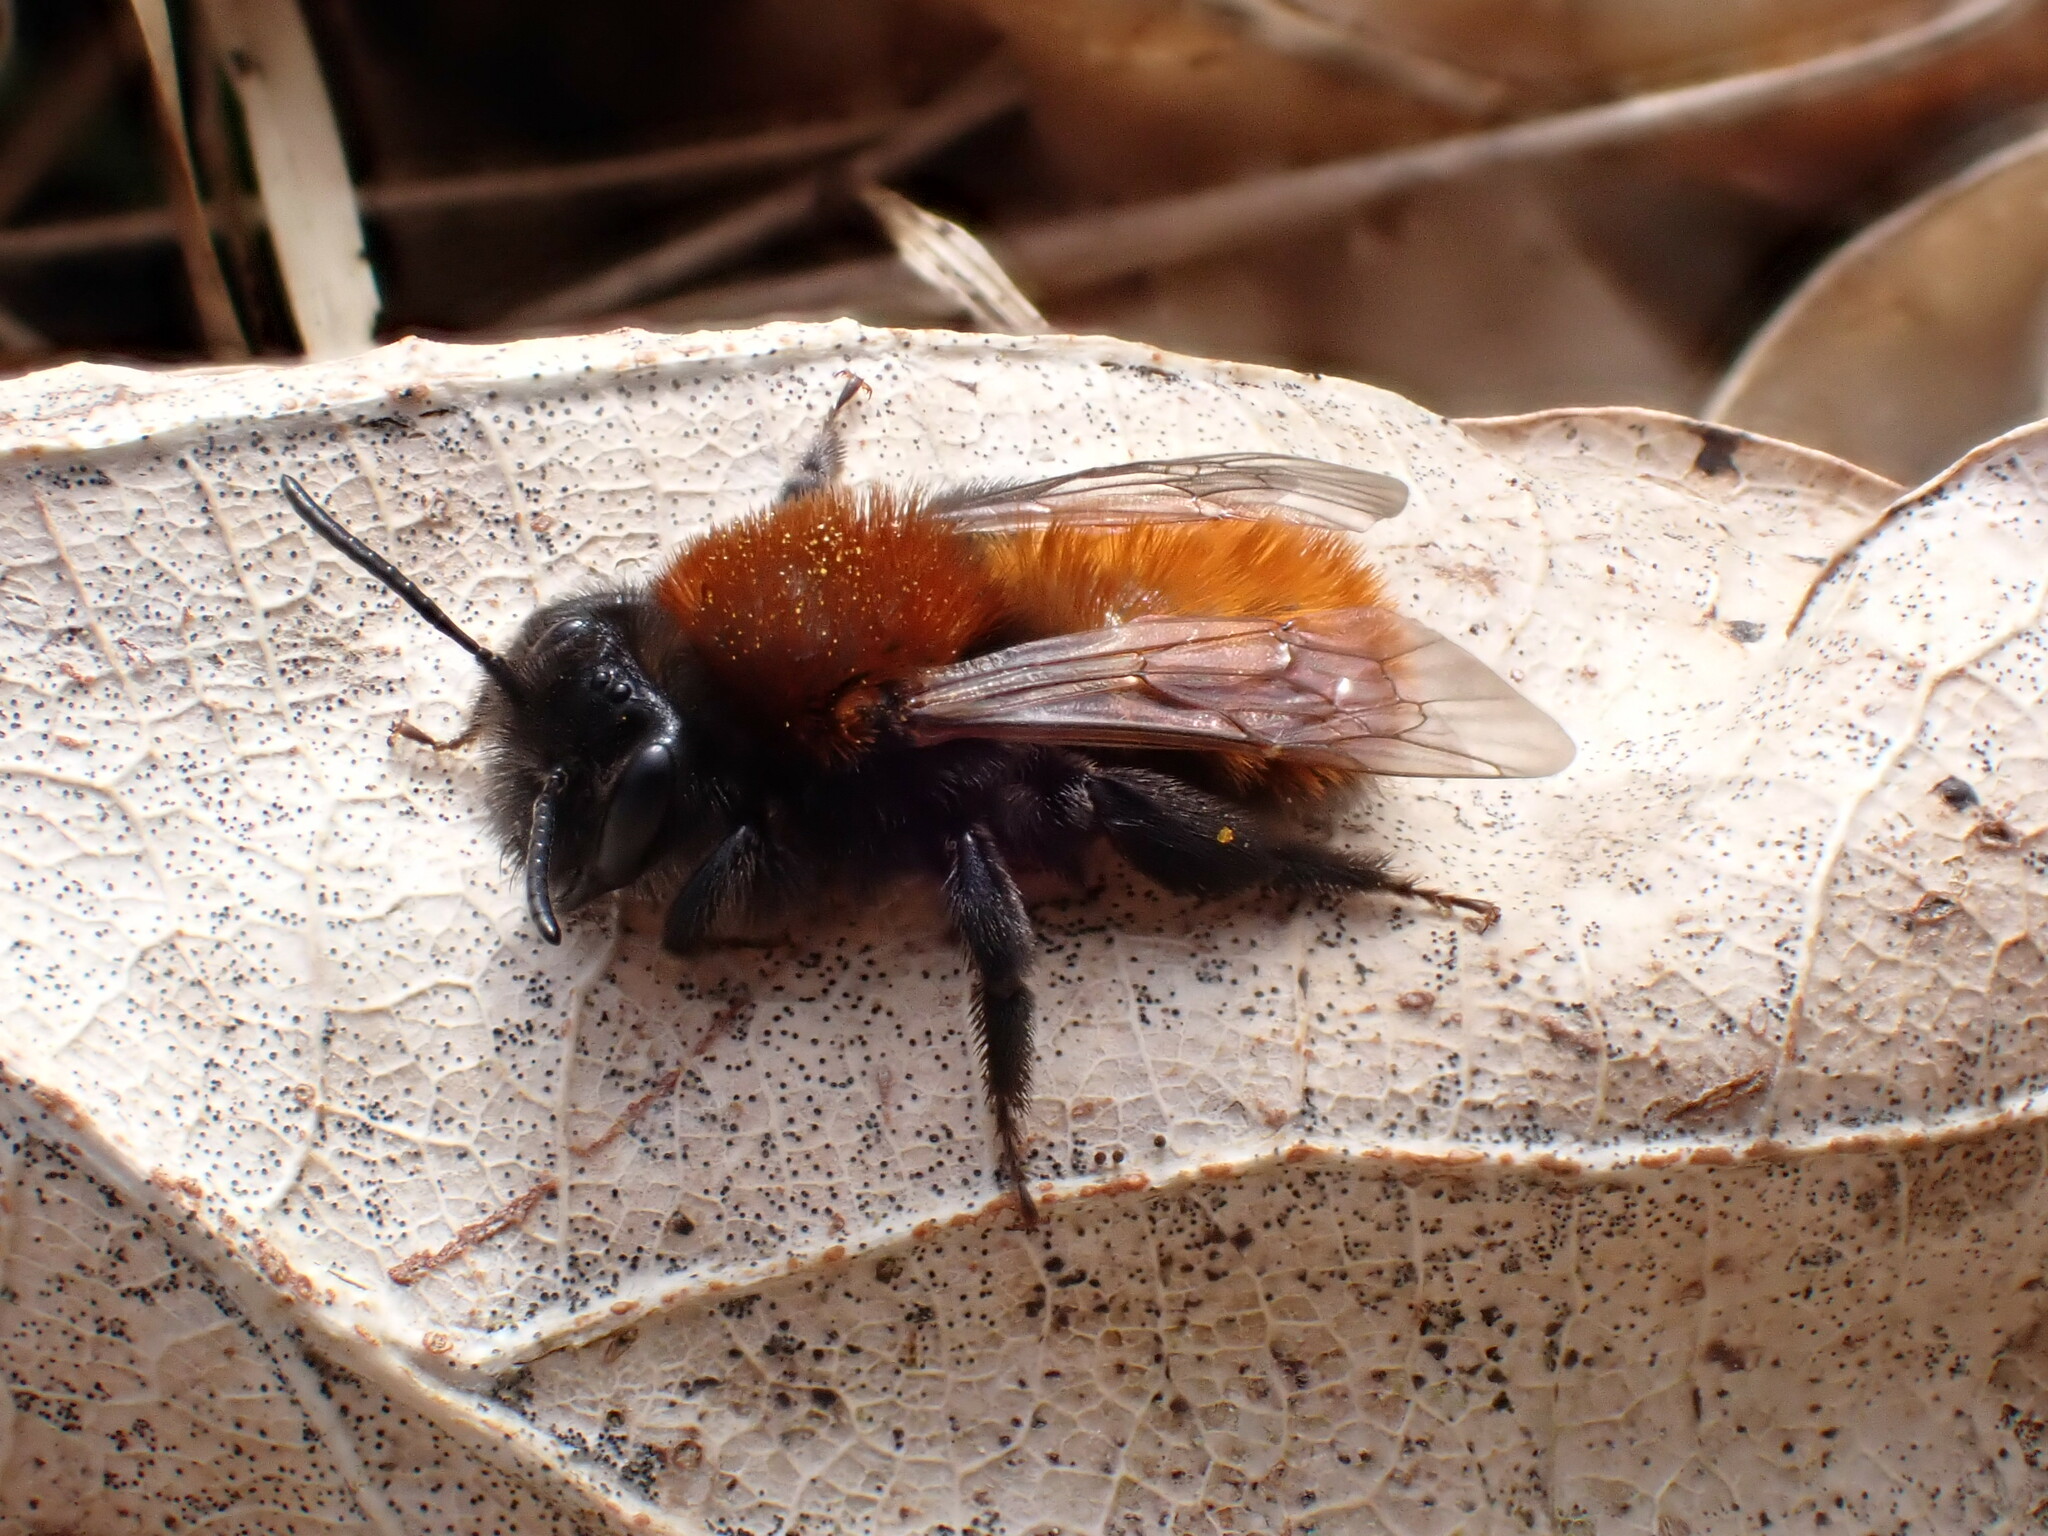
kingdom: Animalia
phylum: Arthropoda
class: Insecta
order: Hymenoptera
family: Andrenidae
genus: Andrena
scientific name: Andrena fulva
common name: Tawny mining bee
